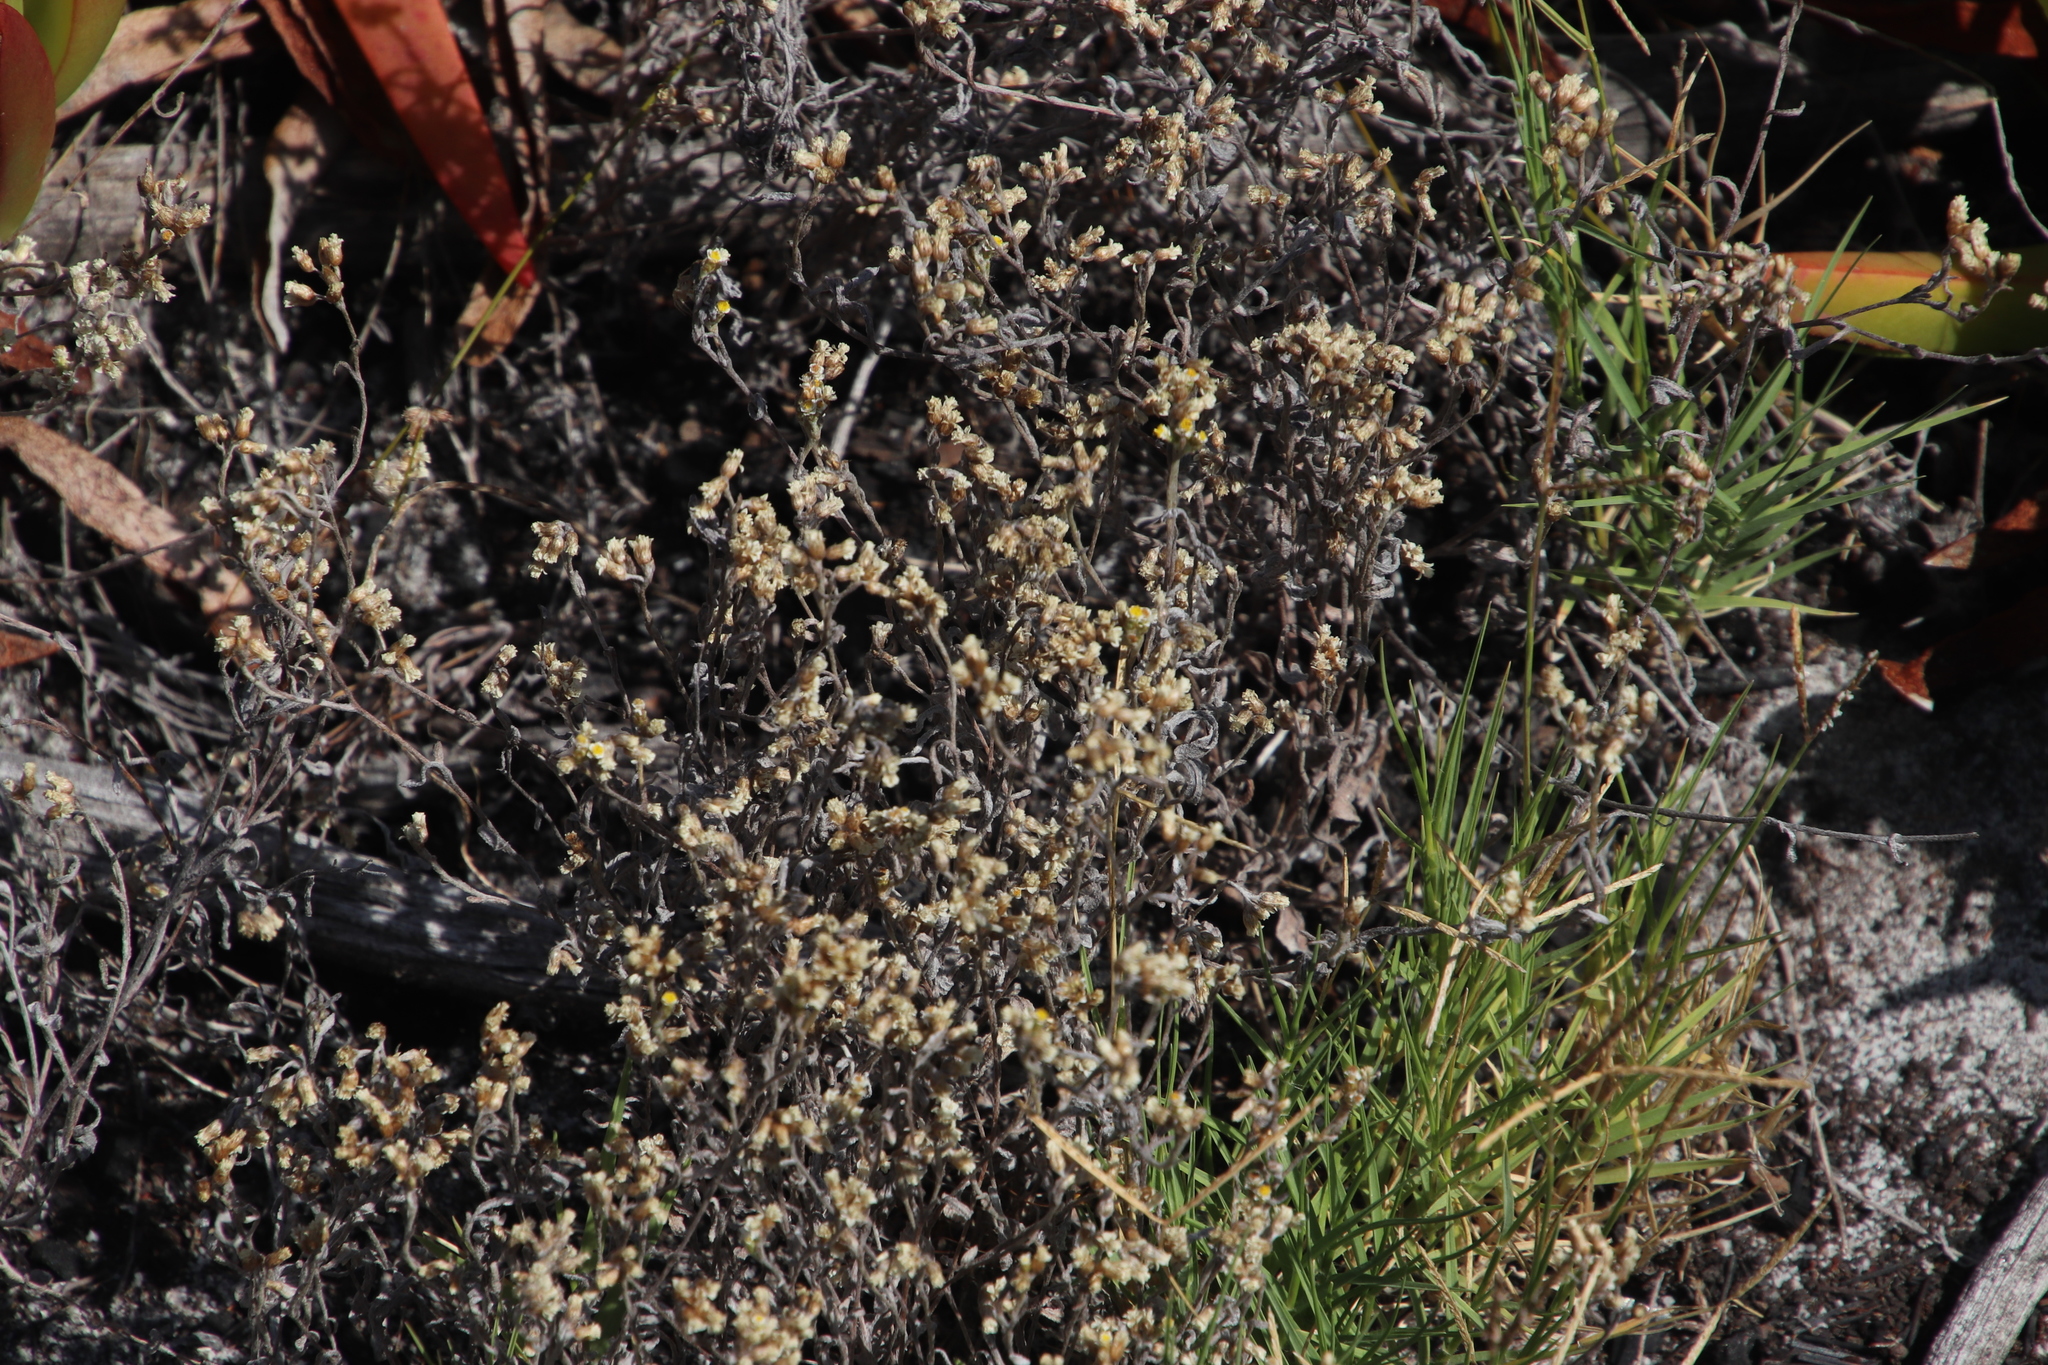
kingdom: Plantae
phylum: Tracheophyta
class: Magnoliopsida
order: Asterales
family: Asteraceae
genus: Helichrysum
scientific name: Helichrysum indicum
